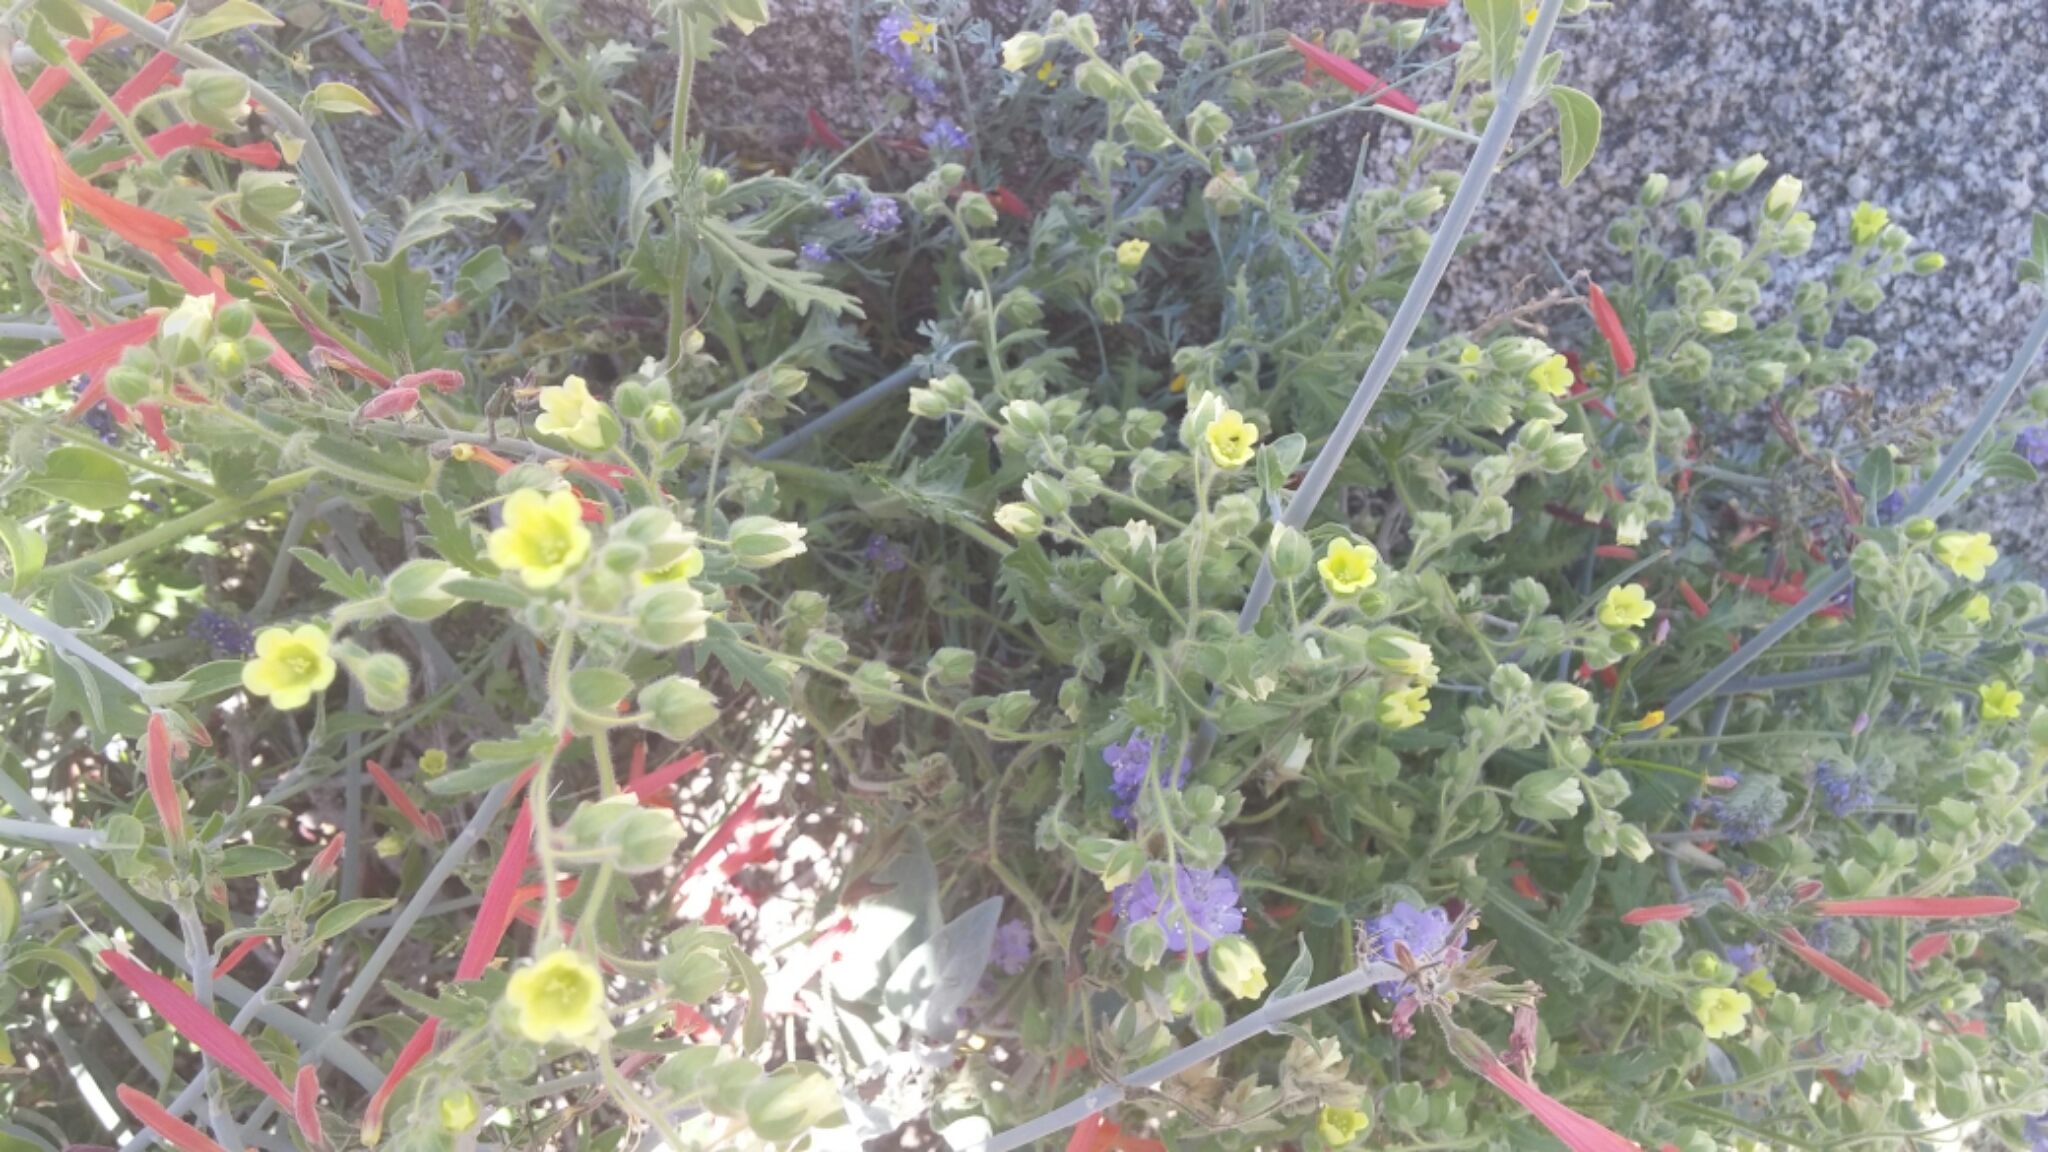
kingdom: Plantae
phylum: Tracheophyta
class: Magnoliopsida
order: Boraginales
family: Hydrophyllaceae
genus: Emmenanthe
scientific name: Emmenanthe penduliflora
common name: Whispering-bells
